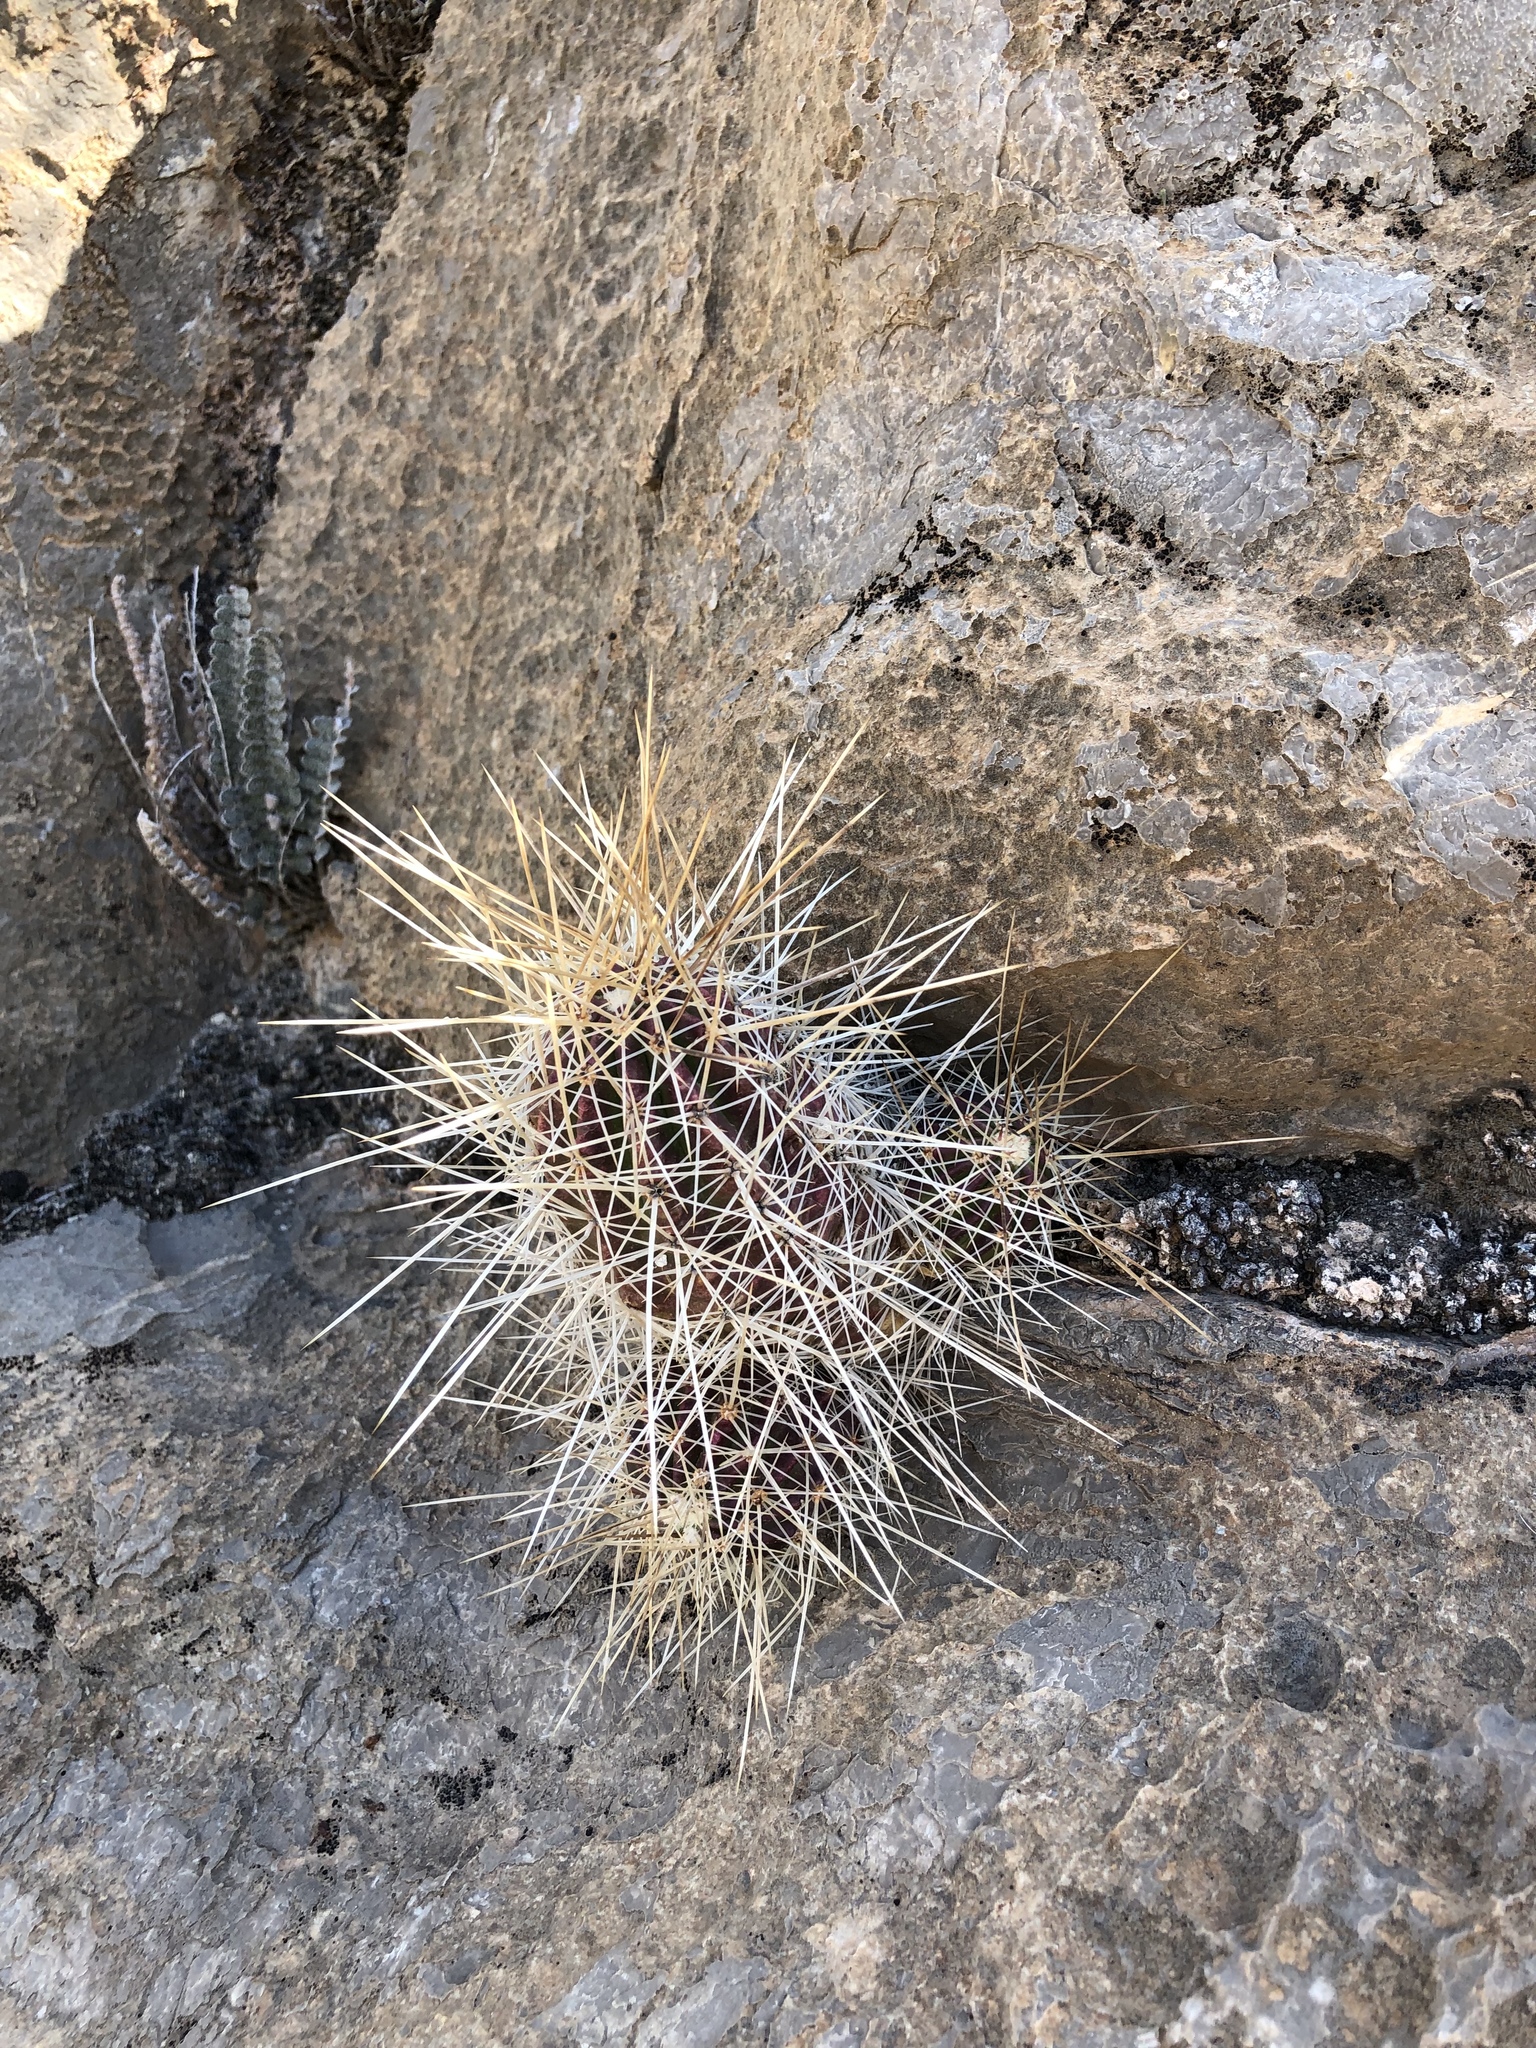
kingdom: Plantae
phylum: Tracheophyta
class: Magnoliopsida
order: Caryophyllales
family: Cactaceae
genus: Echinocereus
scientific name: Echinocereus stramineus
